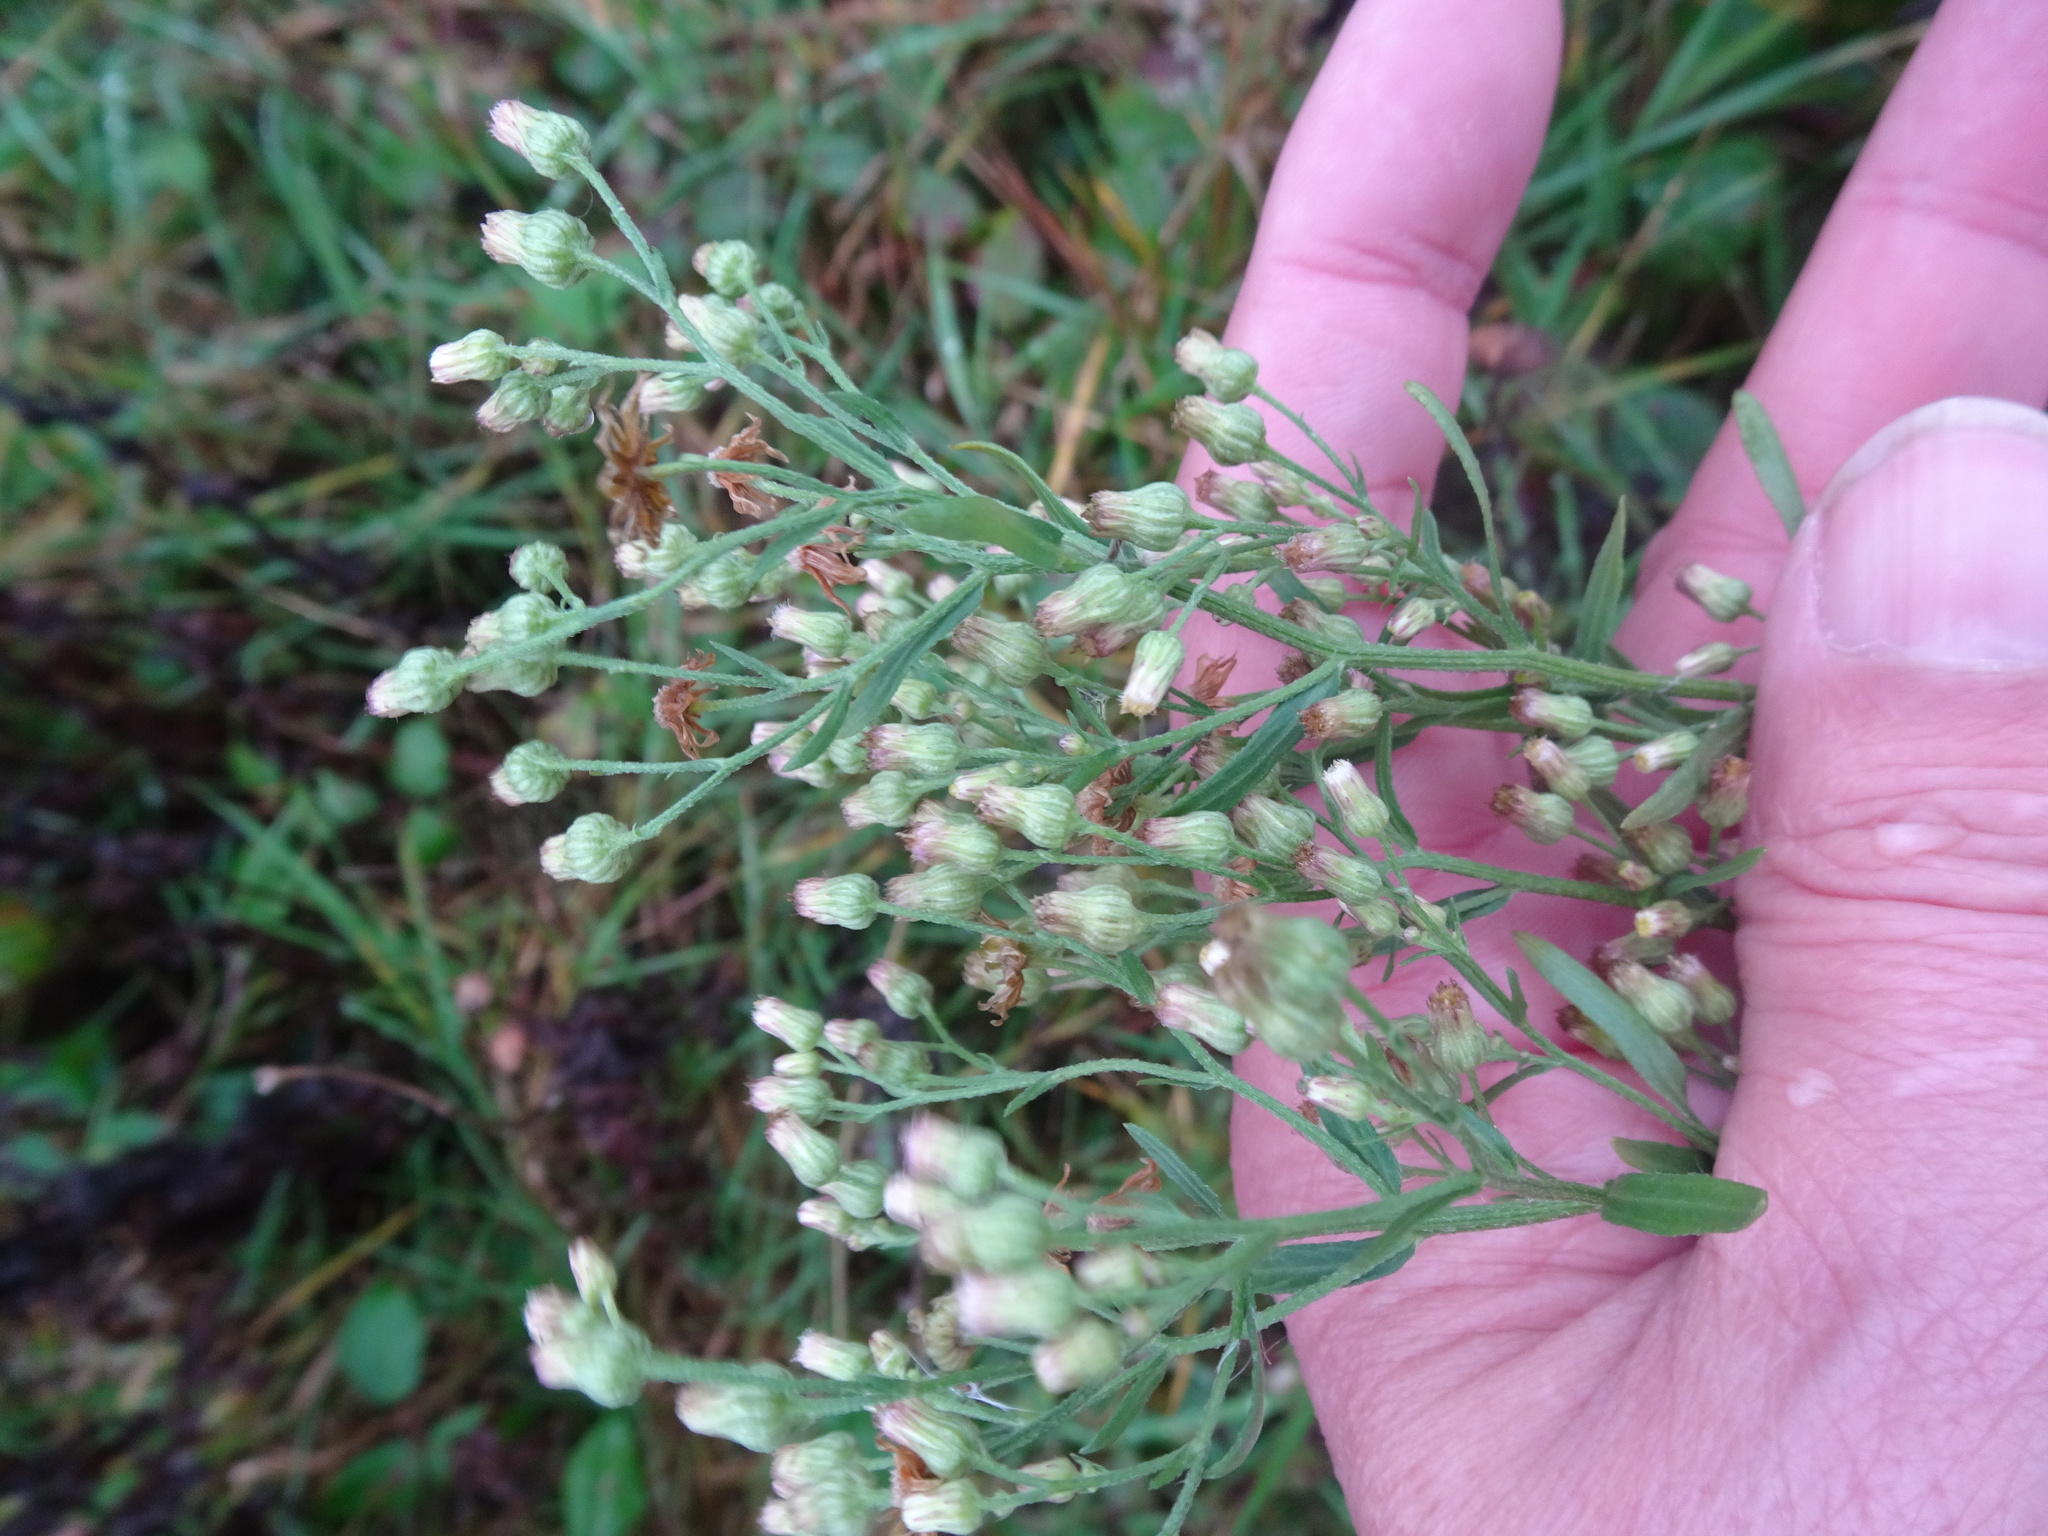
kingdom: Plantae
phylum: Tracheophyta
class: Magnoliopsida
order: Asterales
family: Asteraceae
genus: Erigeron
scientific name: Erigeron canadensis
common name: Canadian fleabane
